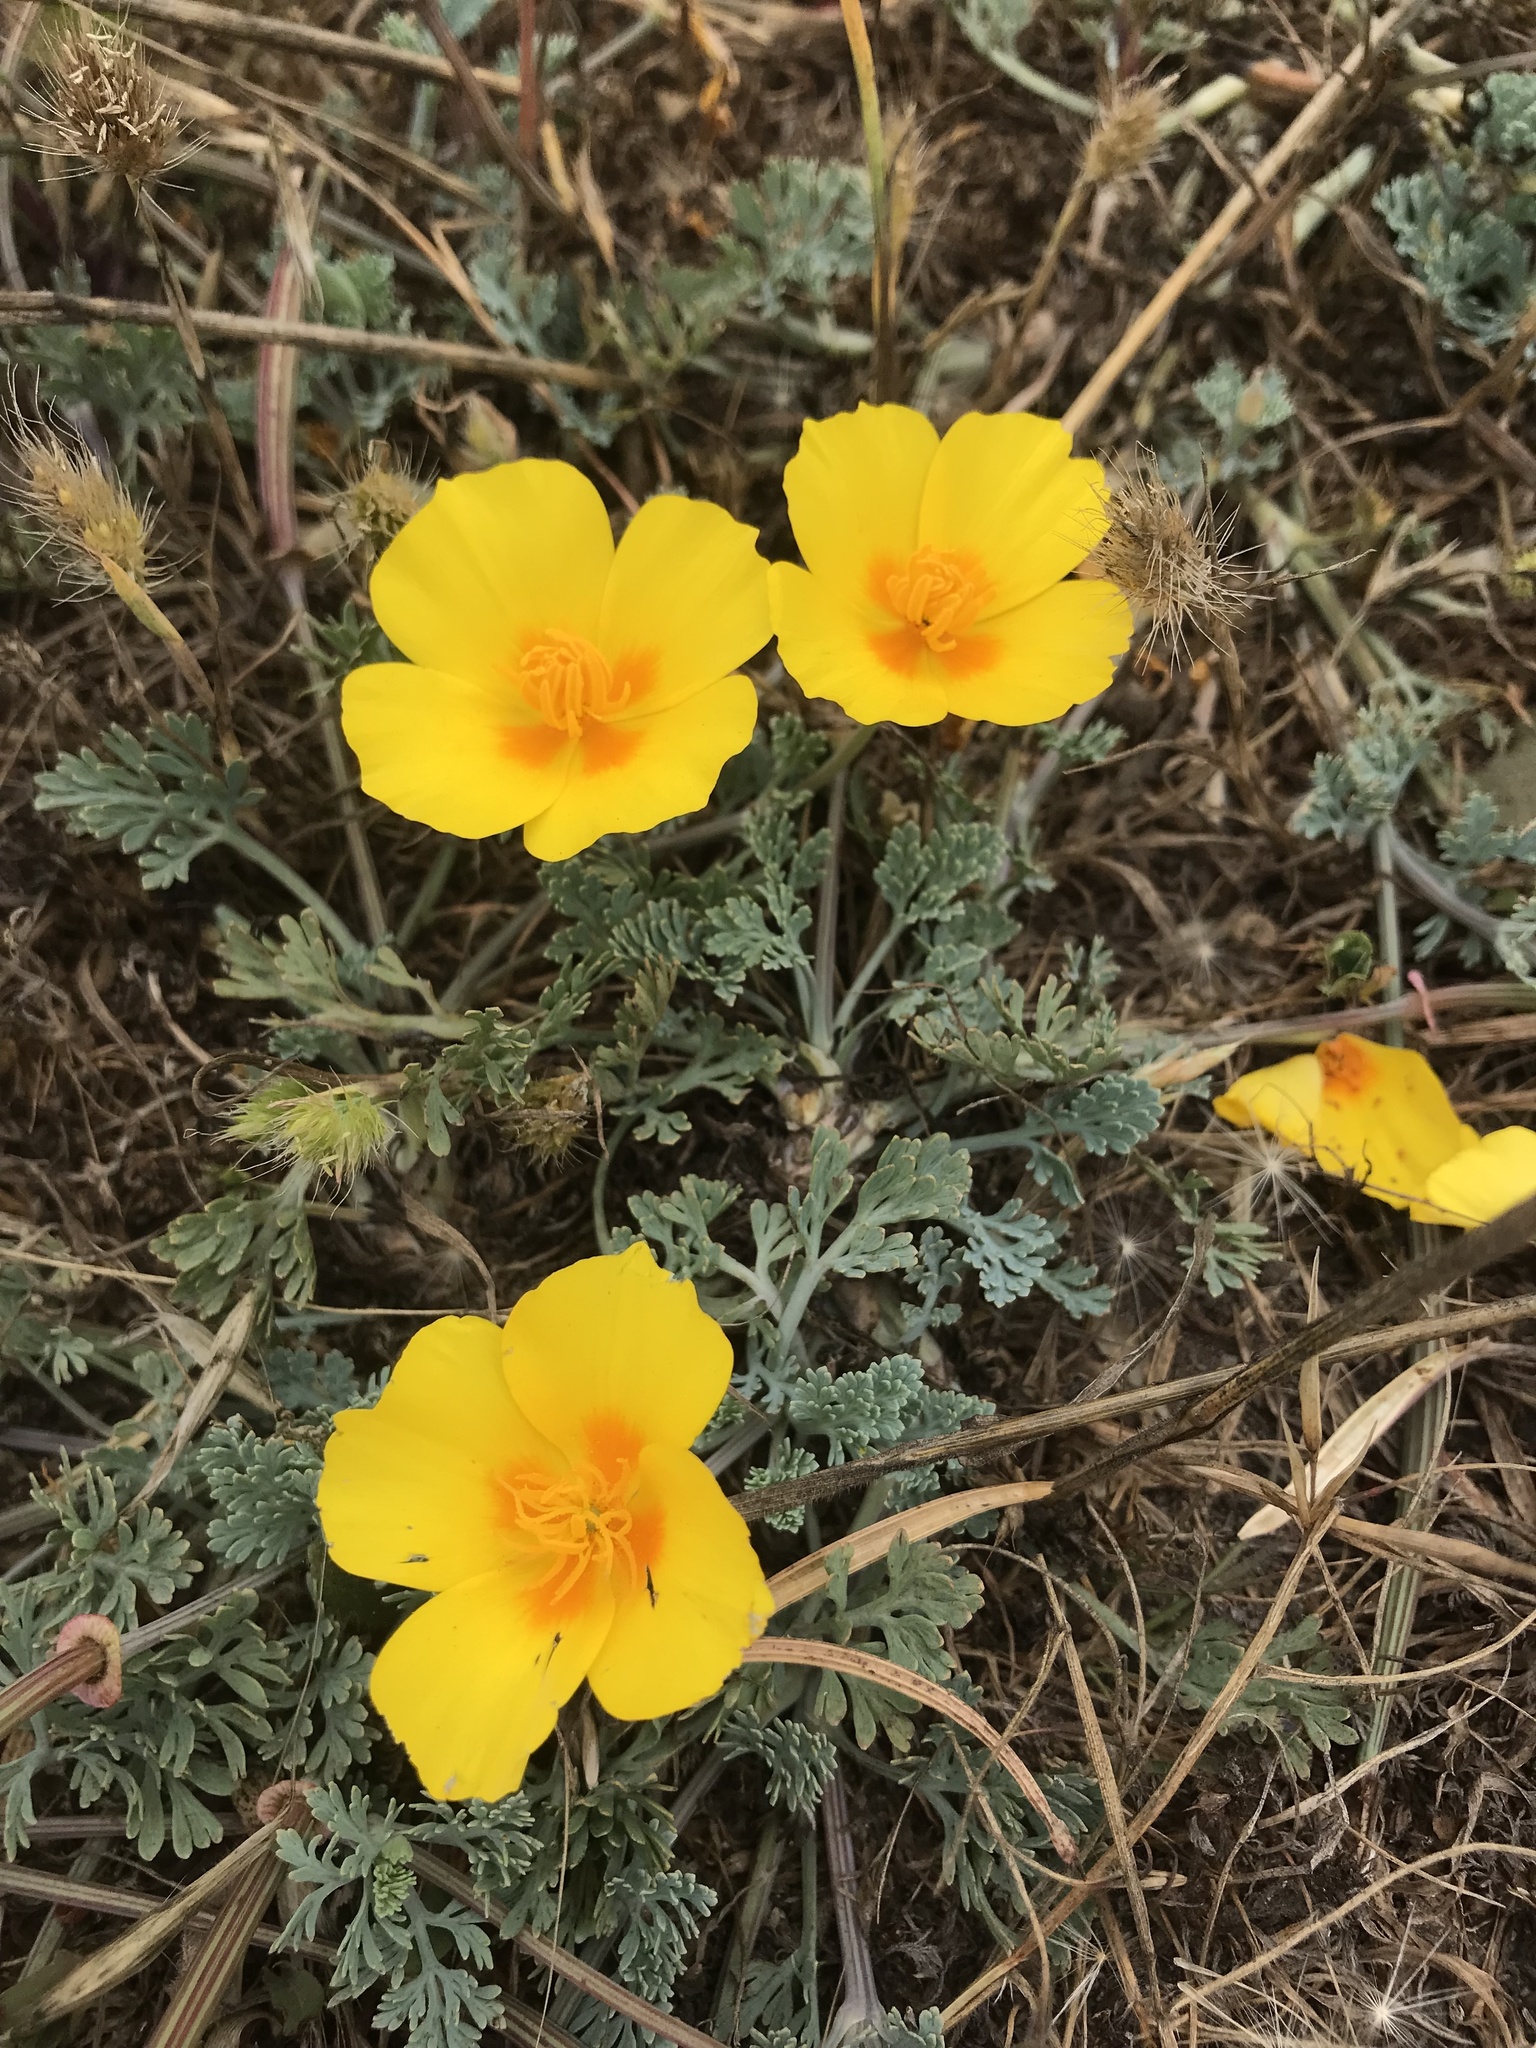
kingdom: Plantae
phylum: Tracheophyta
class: Magnoliopsida
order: Ranunculales
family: Papaveraceae
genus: Eschscholzia
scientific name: Eschscholzia californica
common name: California poppy
